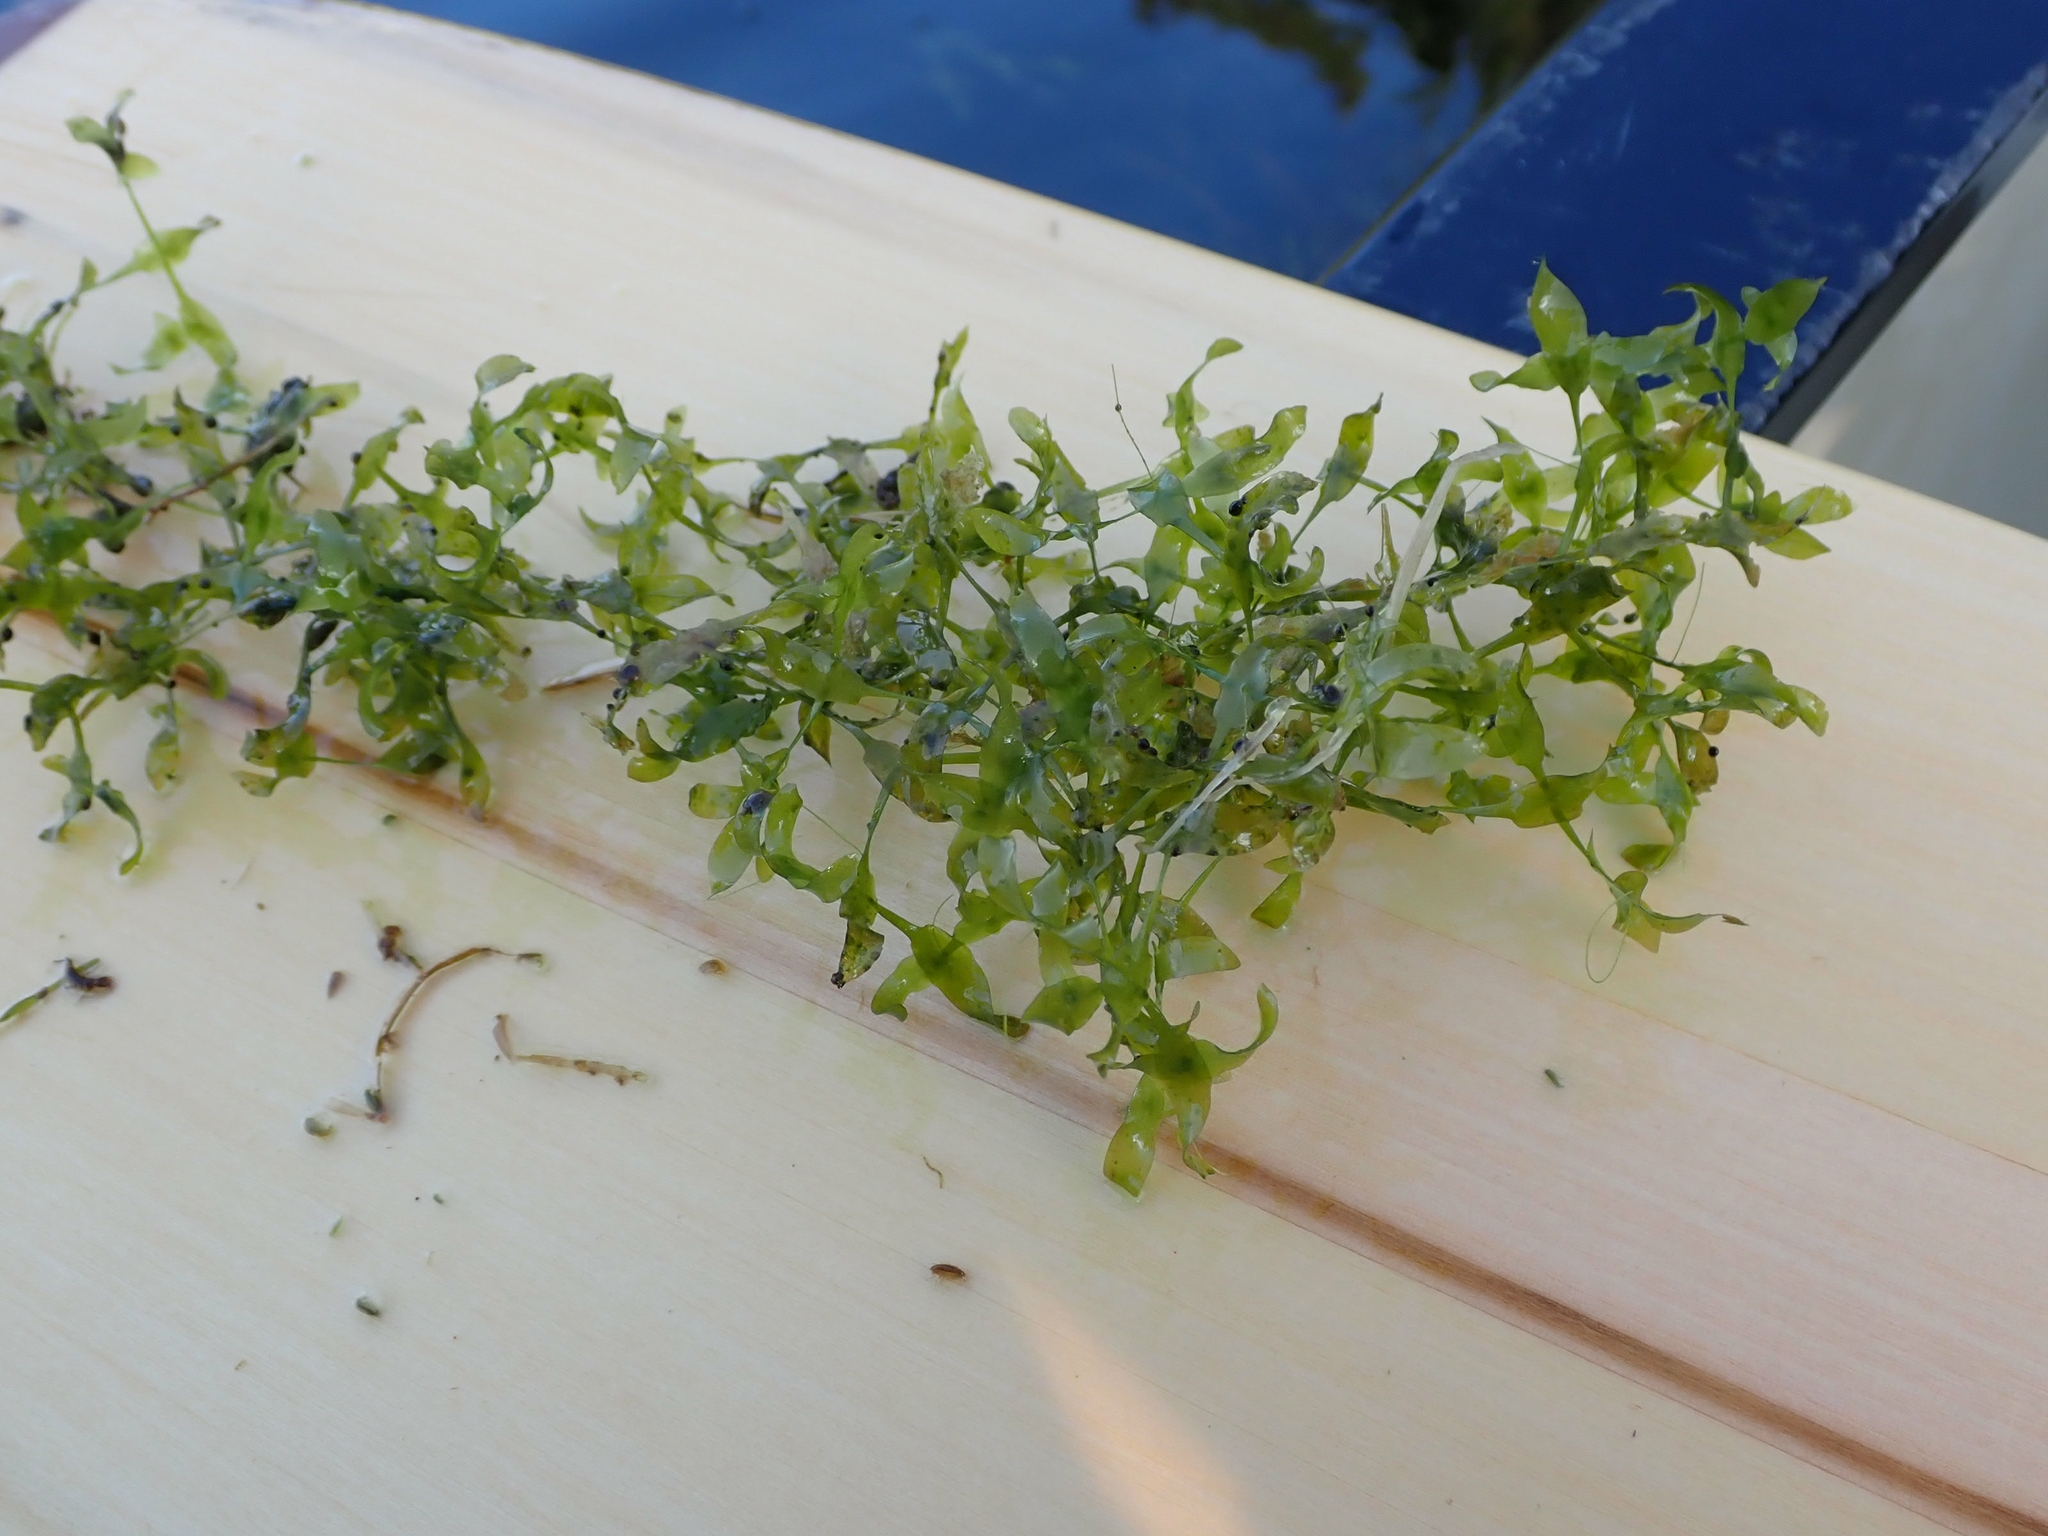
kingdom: Plantae
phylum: Tracheophyta
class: Liliopsida
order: Alismatales
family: Araceae
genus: Lemna
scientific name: Lemna trisulca
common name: Ivy-leaved duckweed
